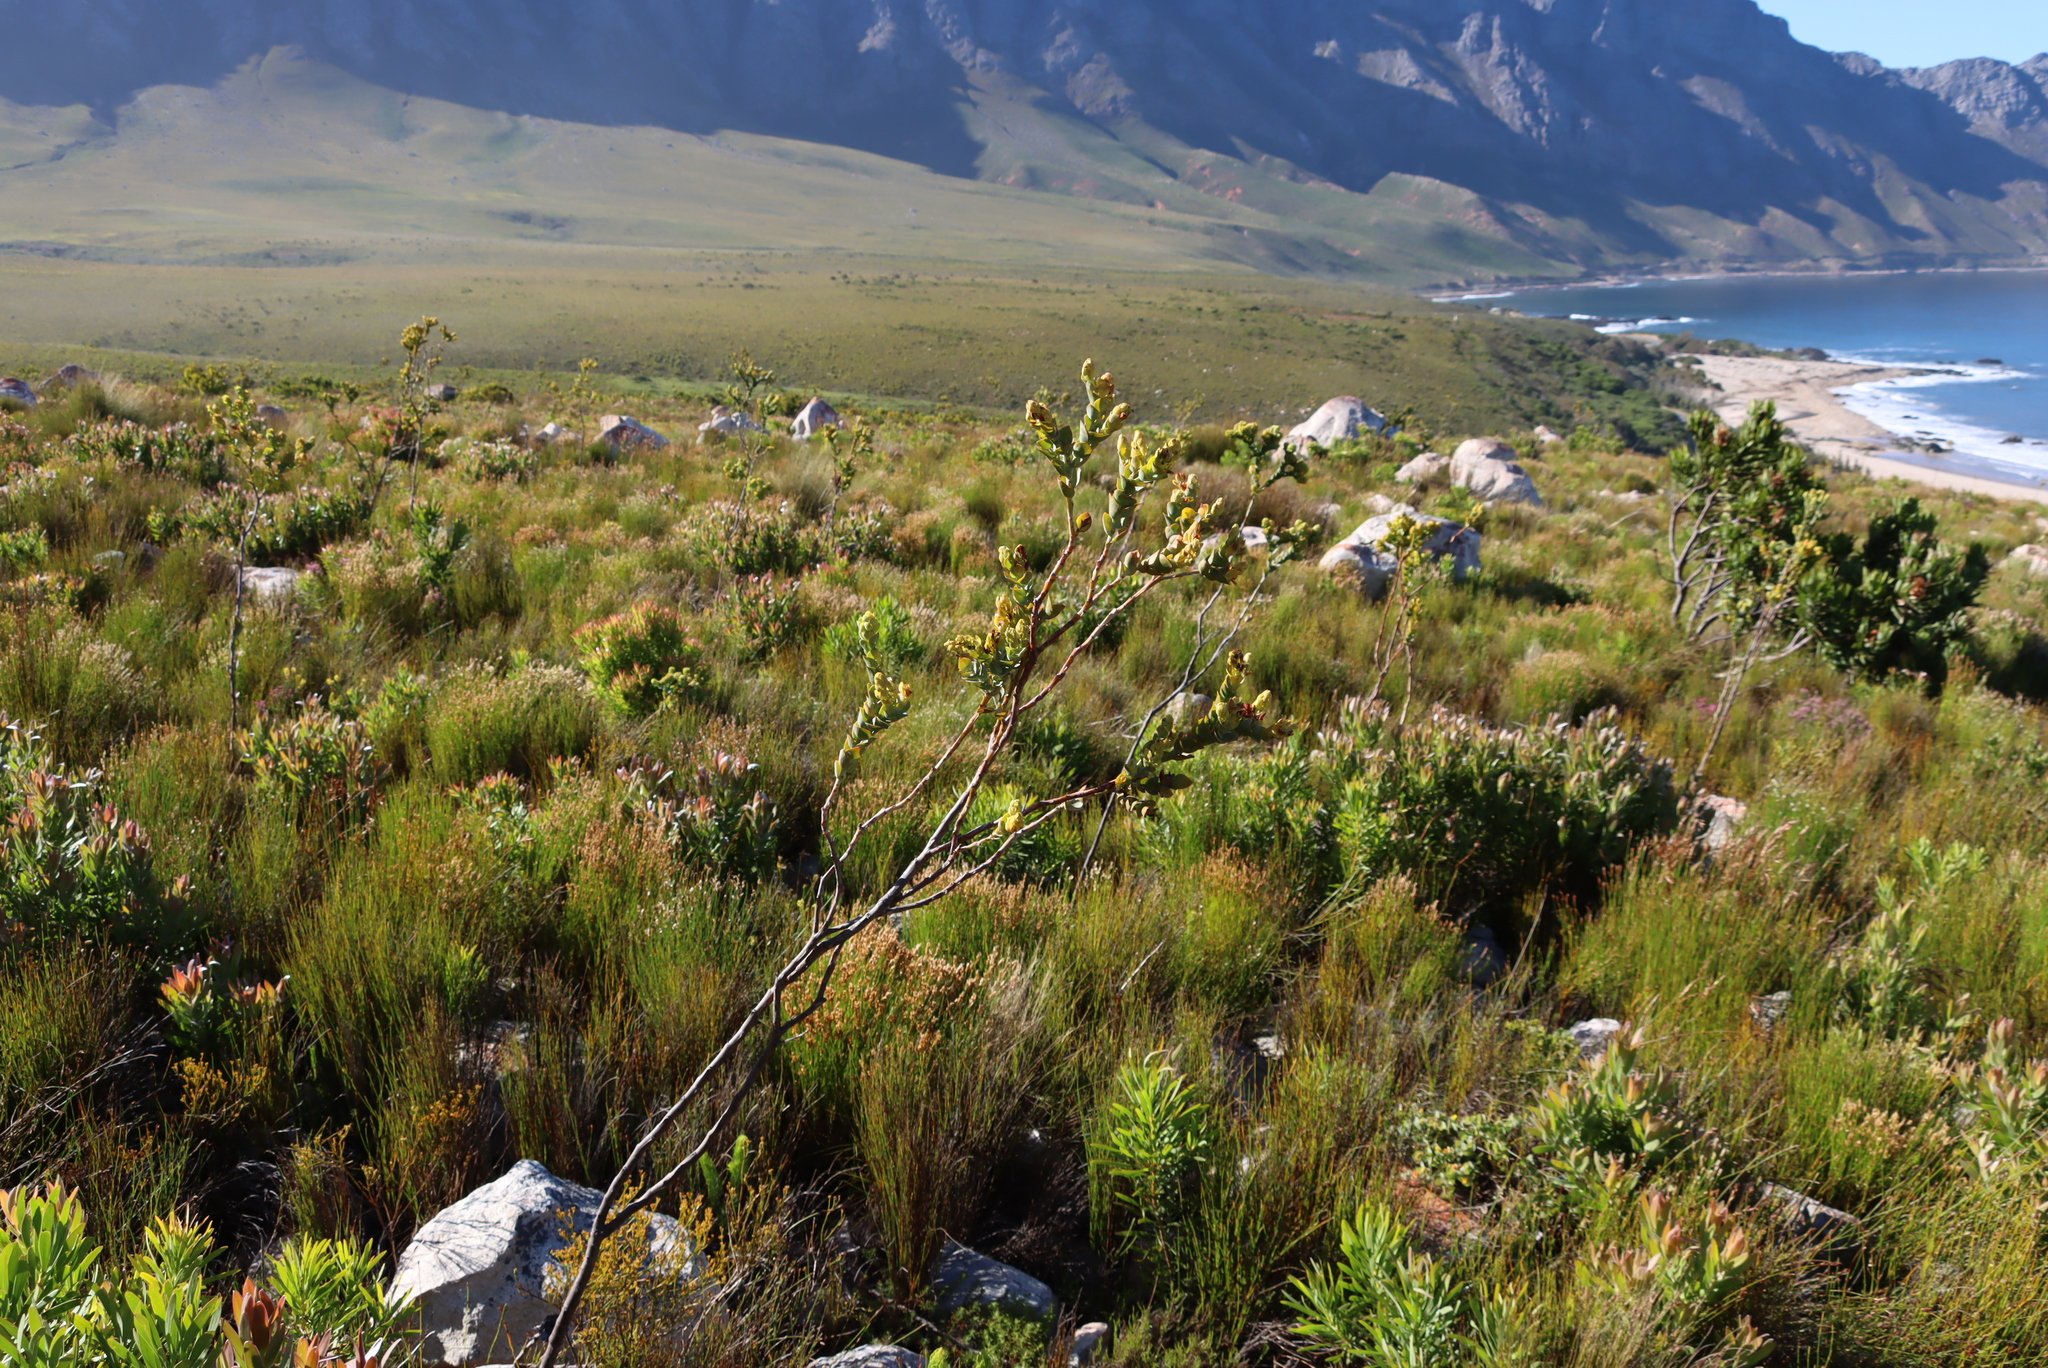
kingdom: Plantae
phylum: Tracheophyta
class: Magnoliopsida
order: Santalales
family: Thesiaceae
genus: Thesium
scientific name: Thesium euphorbioides
